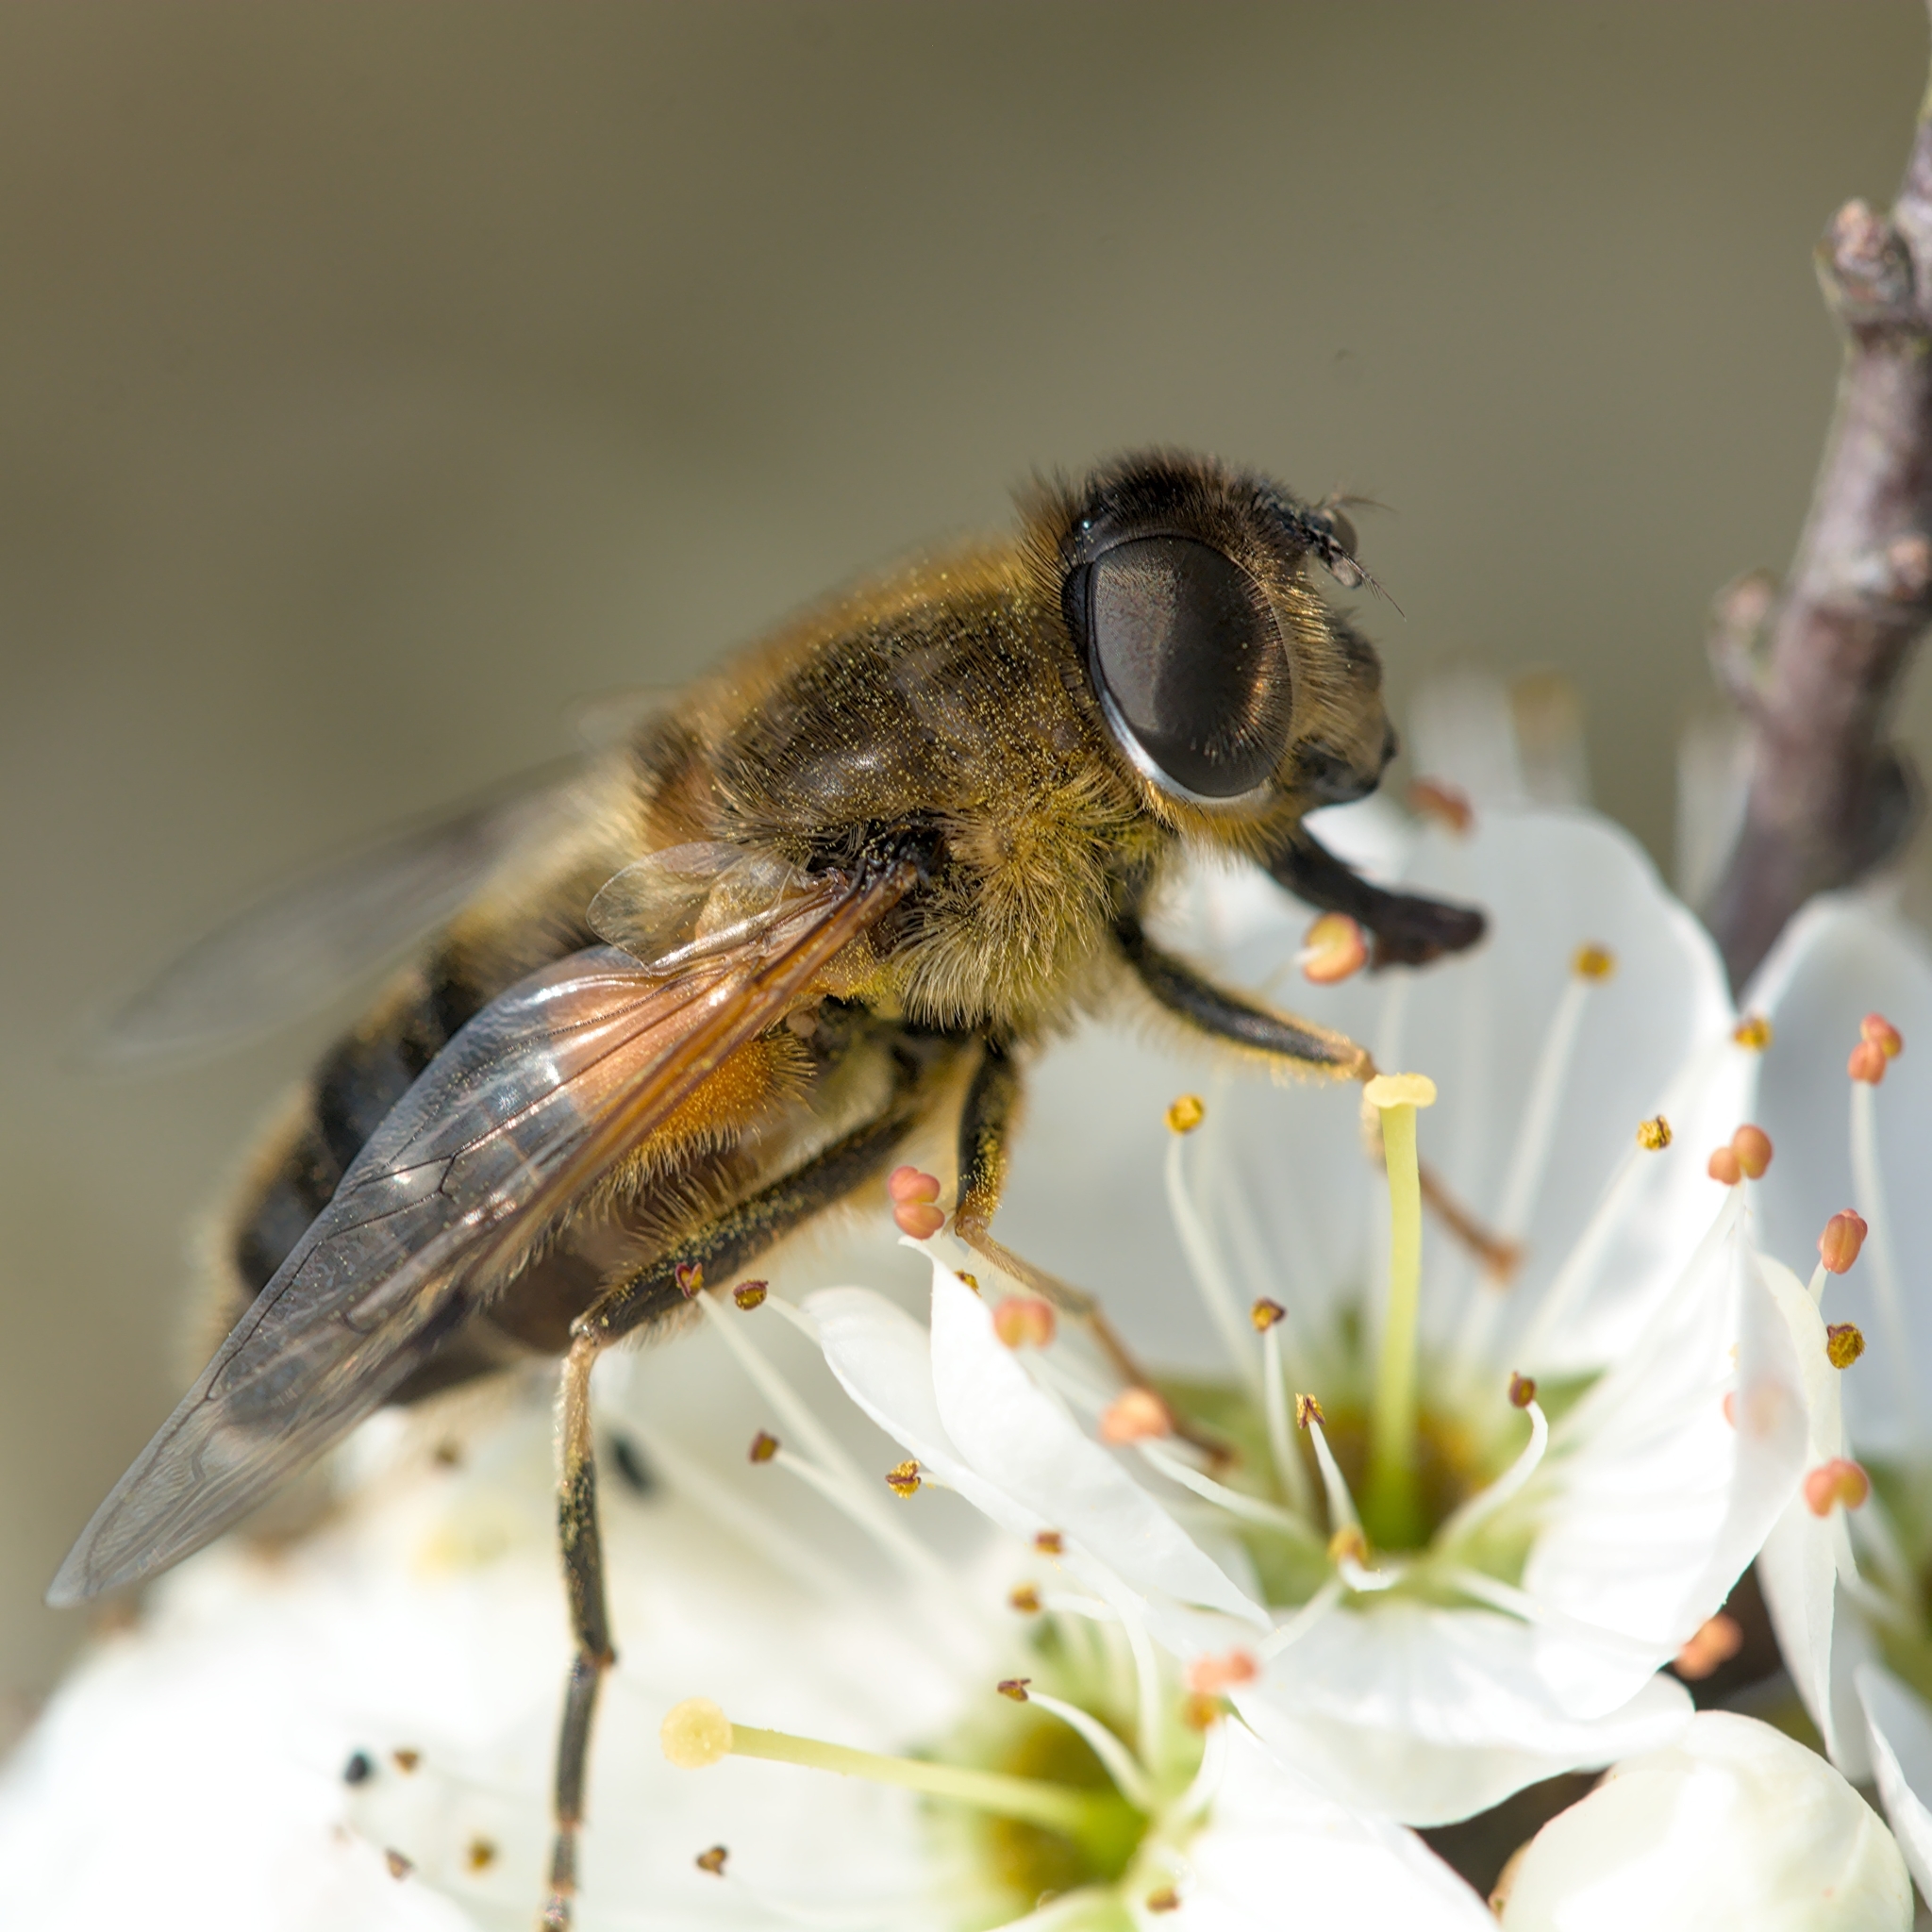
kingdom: Animalia
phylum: Arthropoda
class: Insecta
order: Diptera
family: Syrphidae
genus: Eristalis
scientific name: Eristalis pertinax
